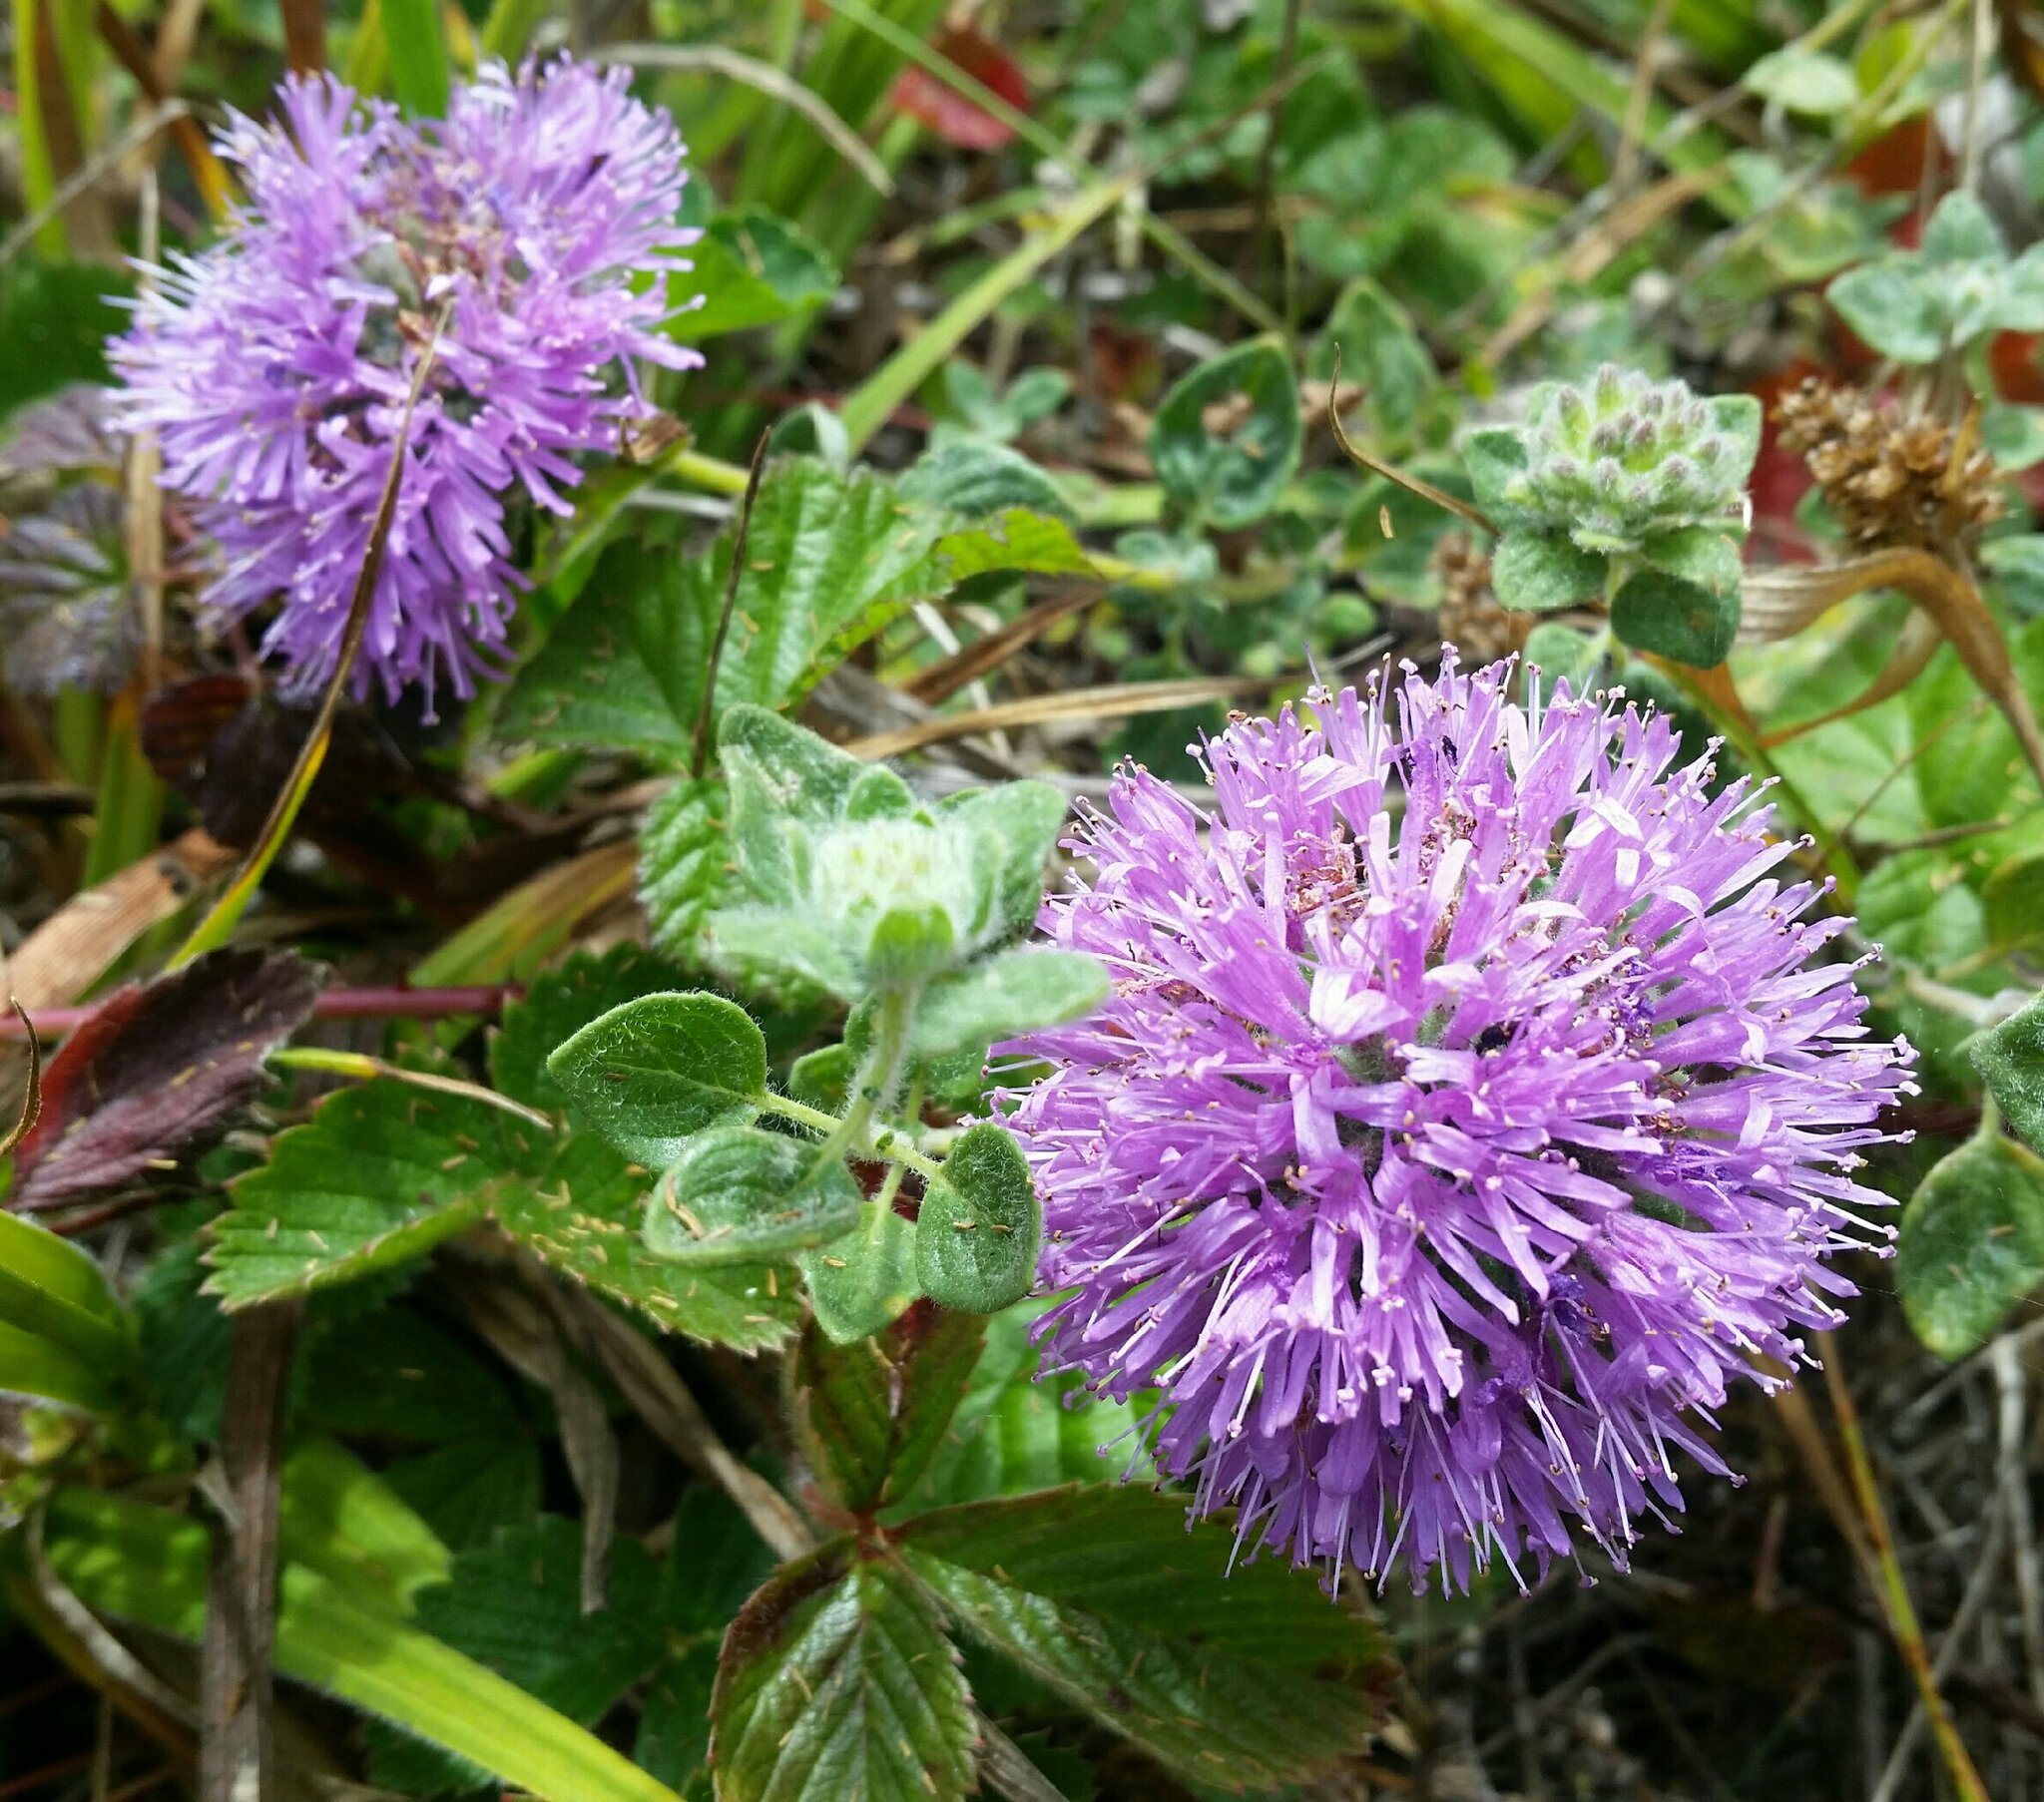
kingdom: Plantae
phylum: Tracheophyta
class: Magnoliopsida
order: Lamiales
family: Lamiaceae
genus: Monardella
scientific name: Monardella odoratissima
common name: Pacific monardella
